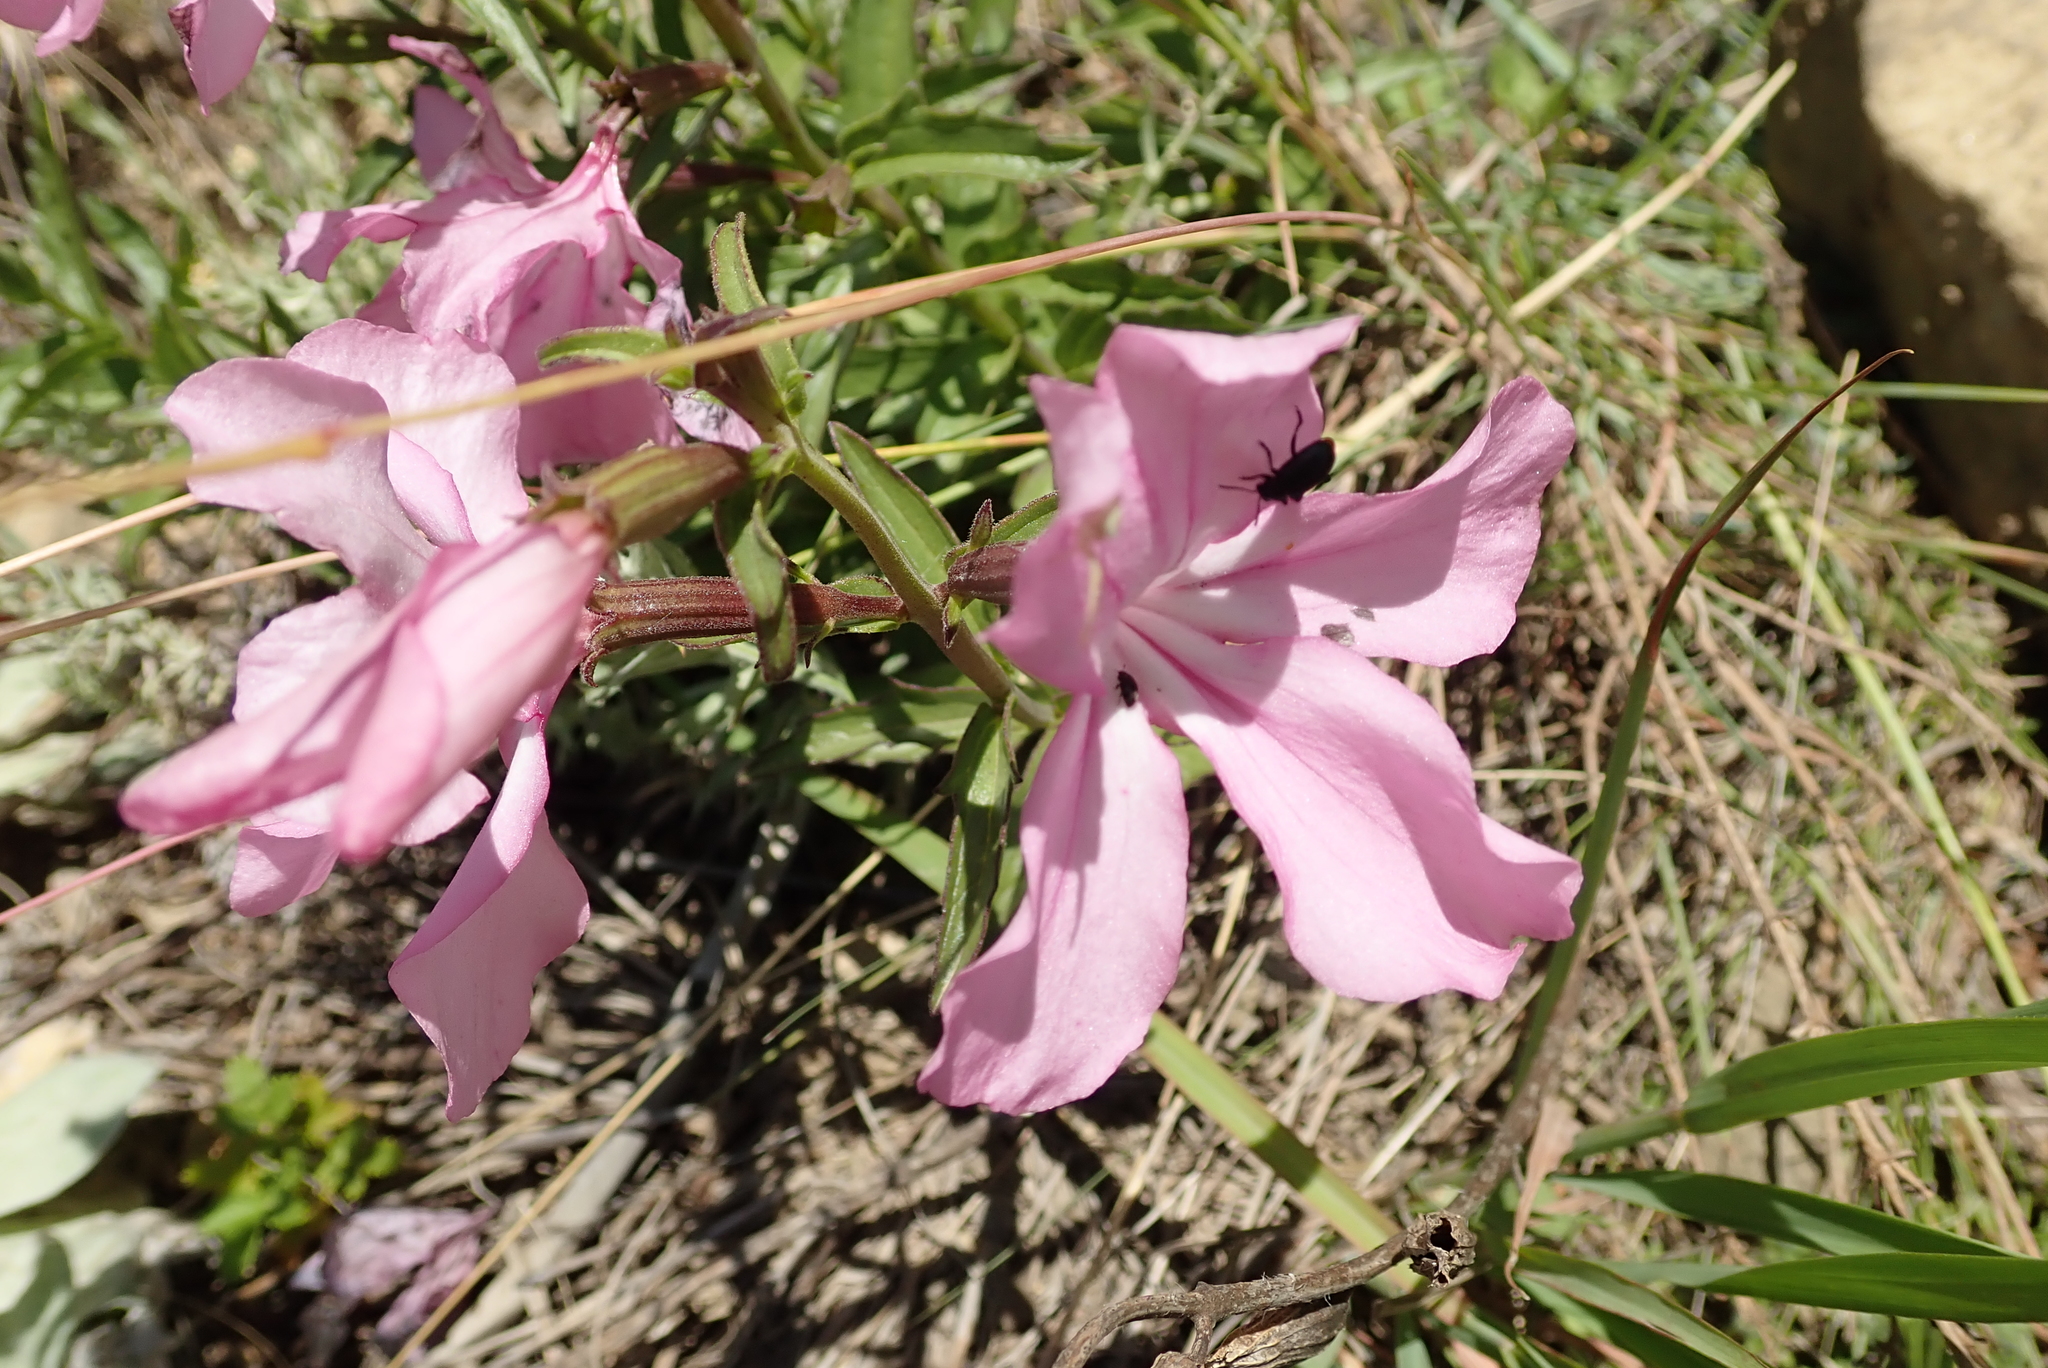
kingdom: Plantae
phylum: Tracheophyta
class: Magnoliopsida
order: Lamiales
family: Orobanchaceae
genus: Cycnium
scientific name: Cycnium racemosum
